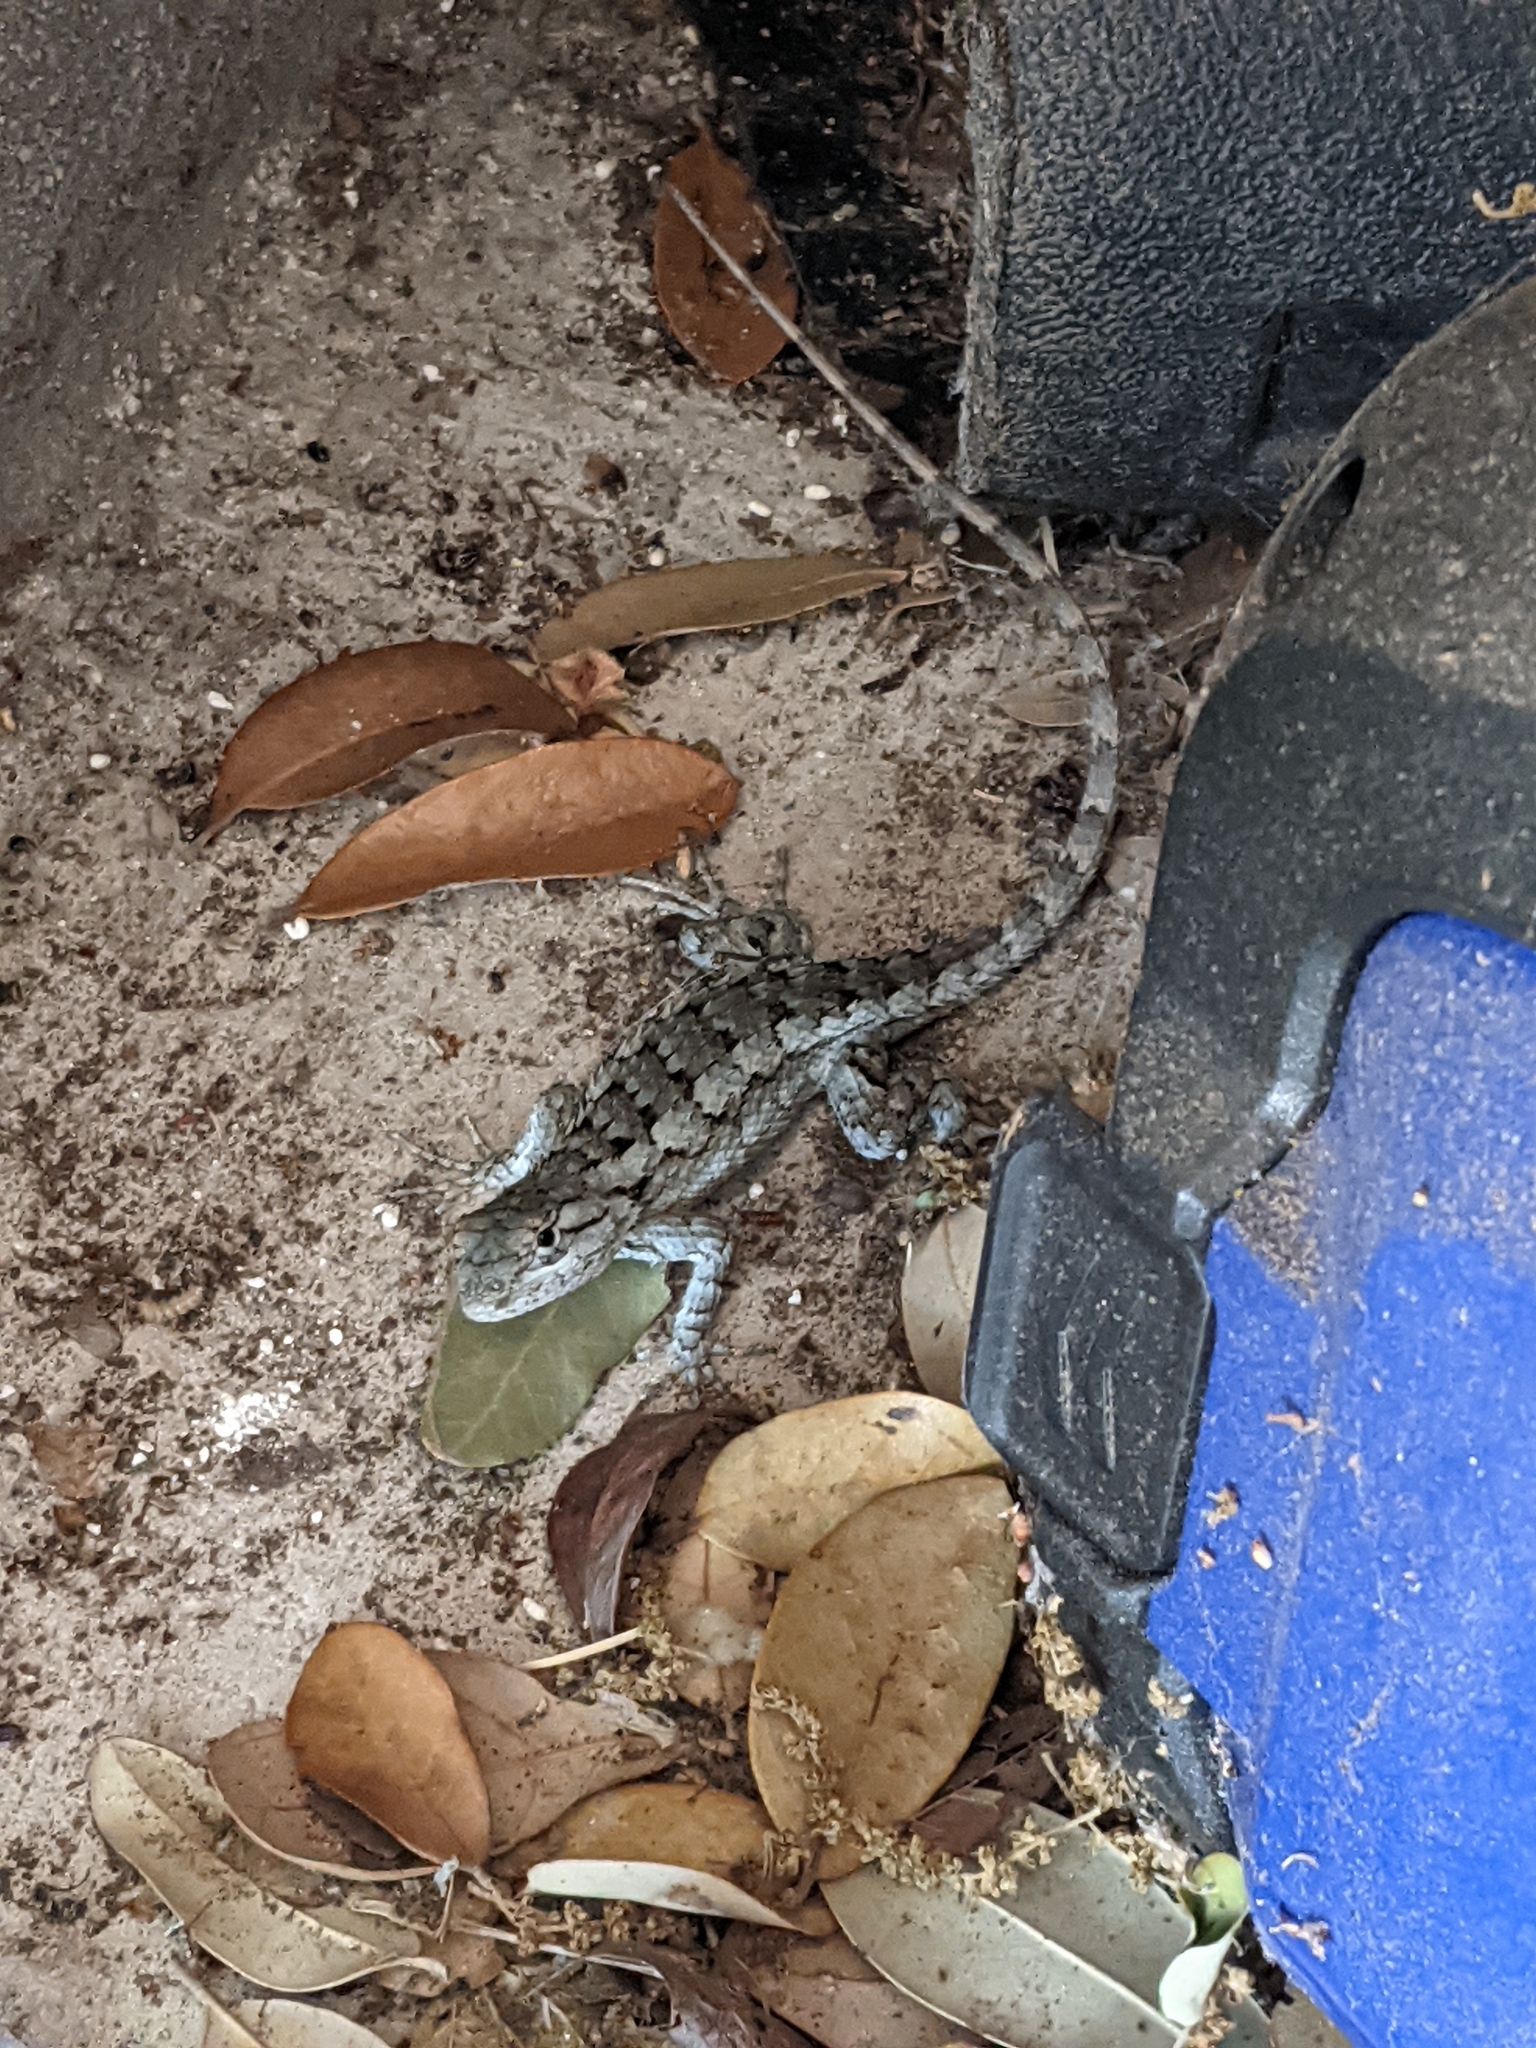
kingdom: Animalia
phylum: Chordata
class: Squamata
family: Phrynosomatidae
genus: Sceloporus
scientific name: Sceloporus olivaceus
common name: Texas spiny lizard
